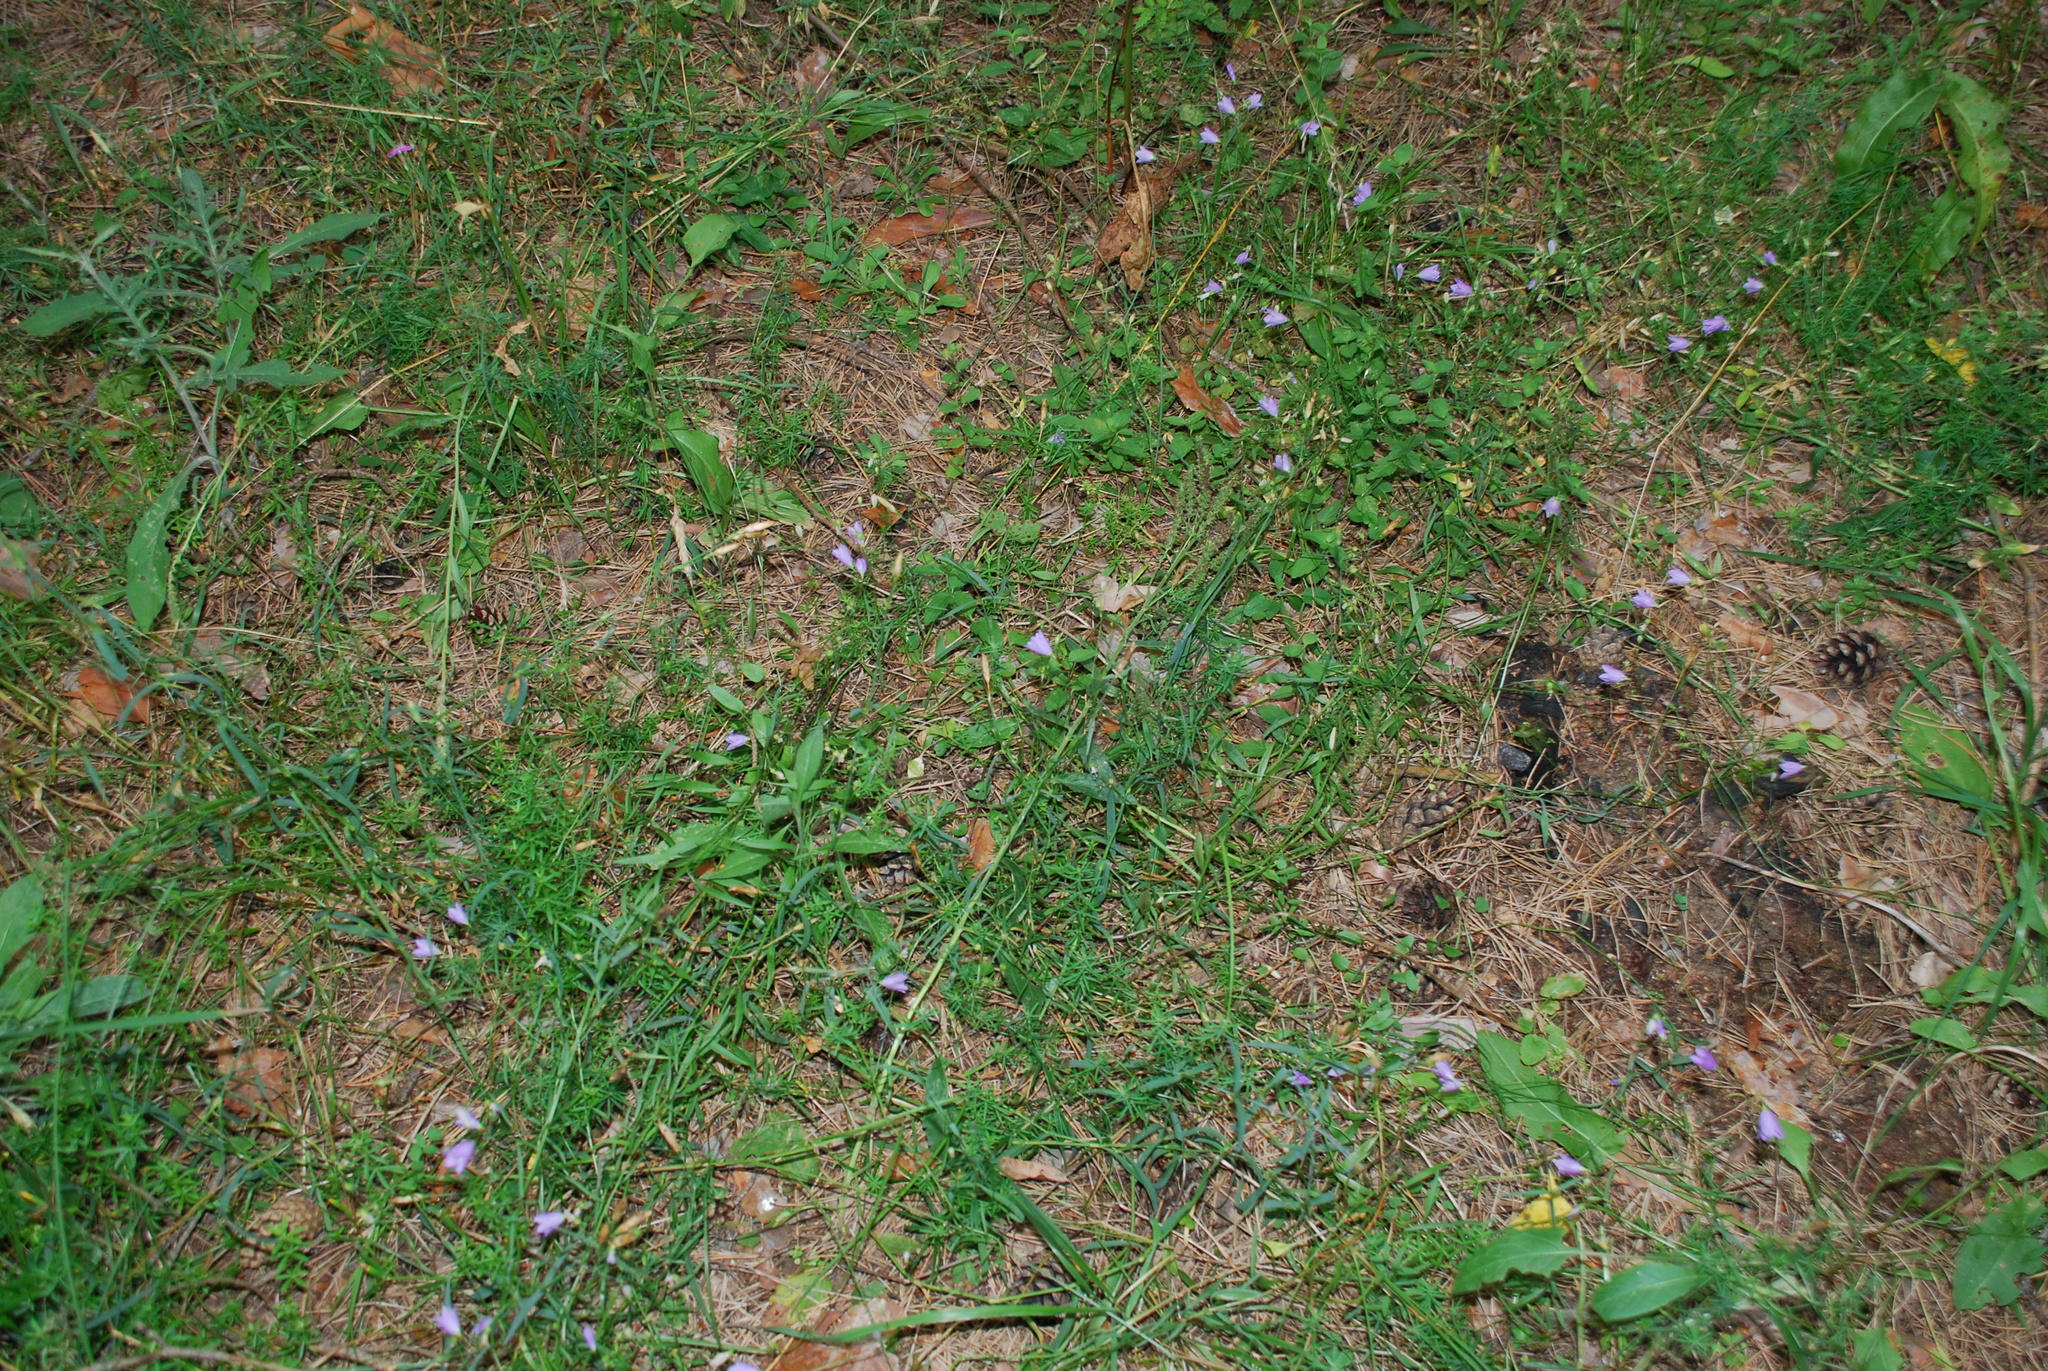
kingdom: Plantae
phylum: Tracheophyta
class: Magnoliopsida
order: Asterales
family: Campanulaceae
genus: Campanula
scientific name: Campanula rotundifolia
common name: Harebell
